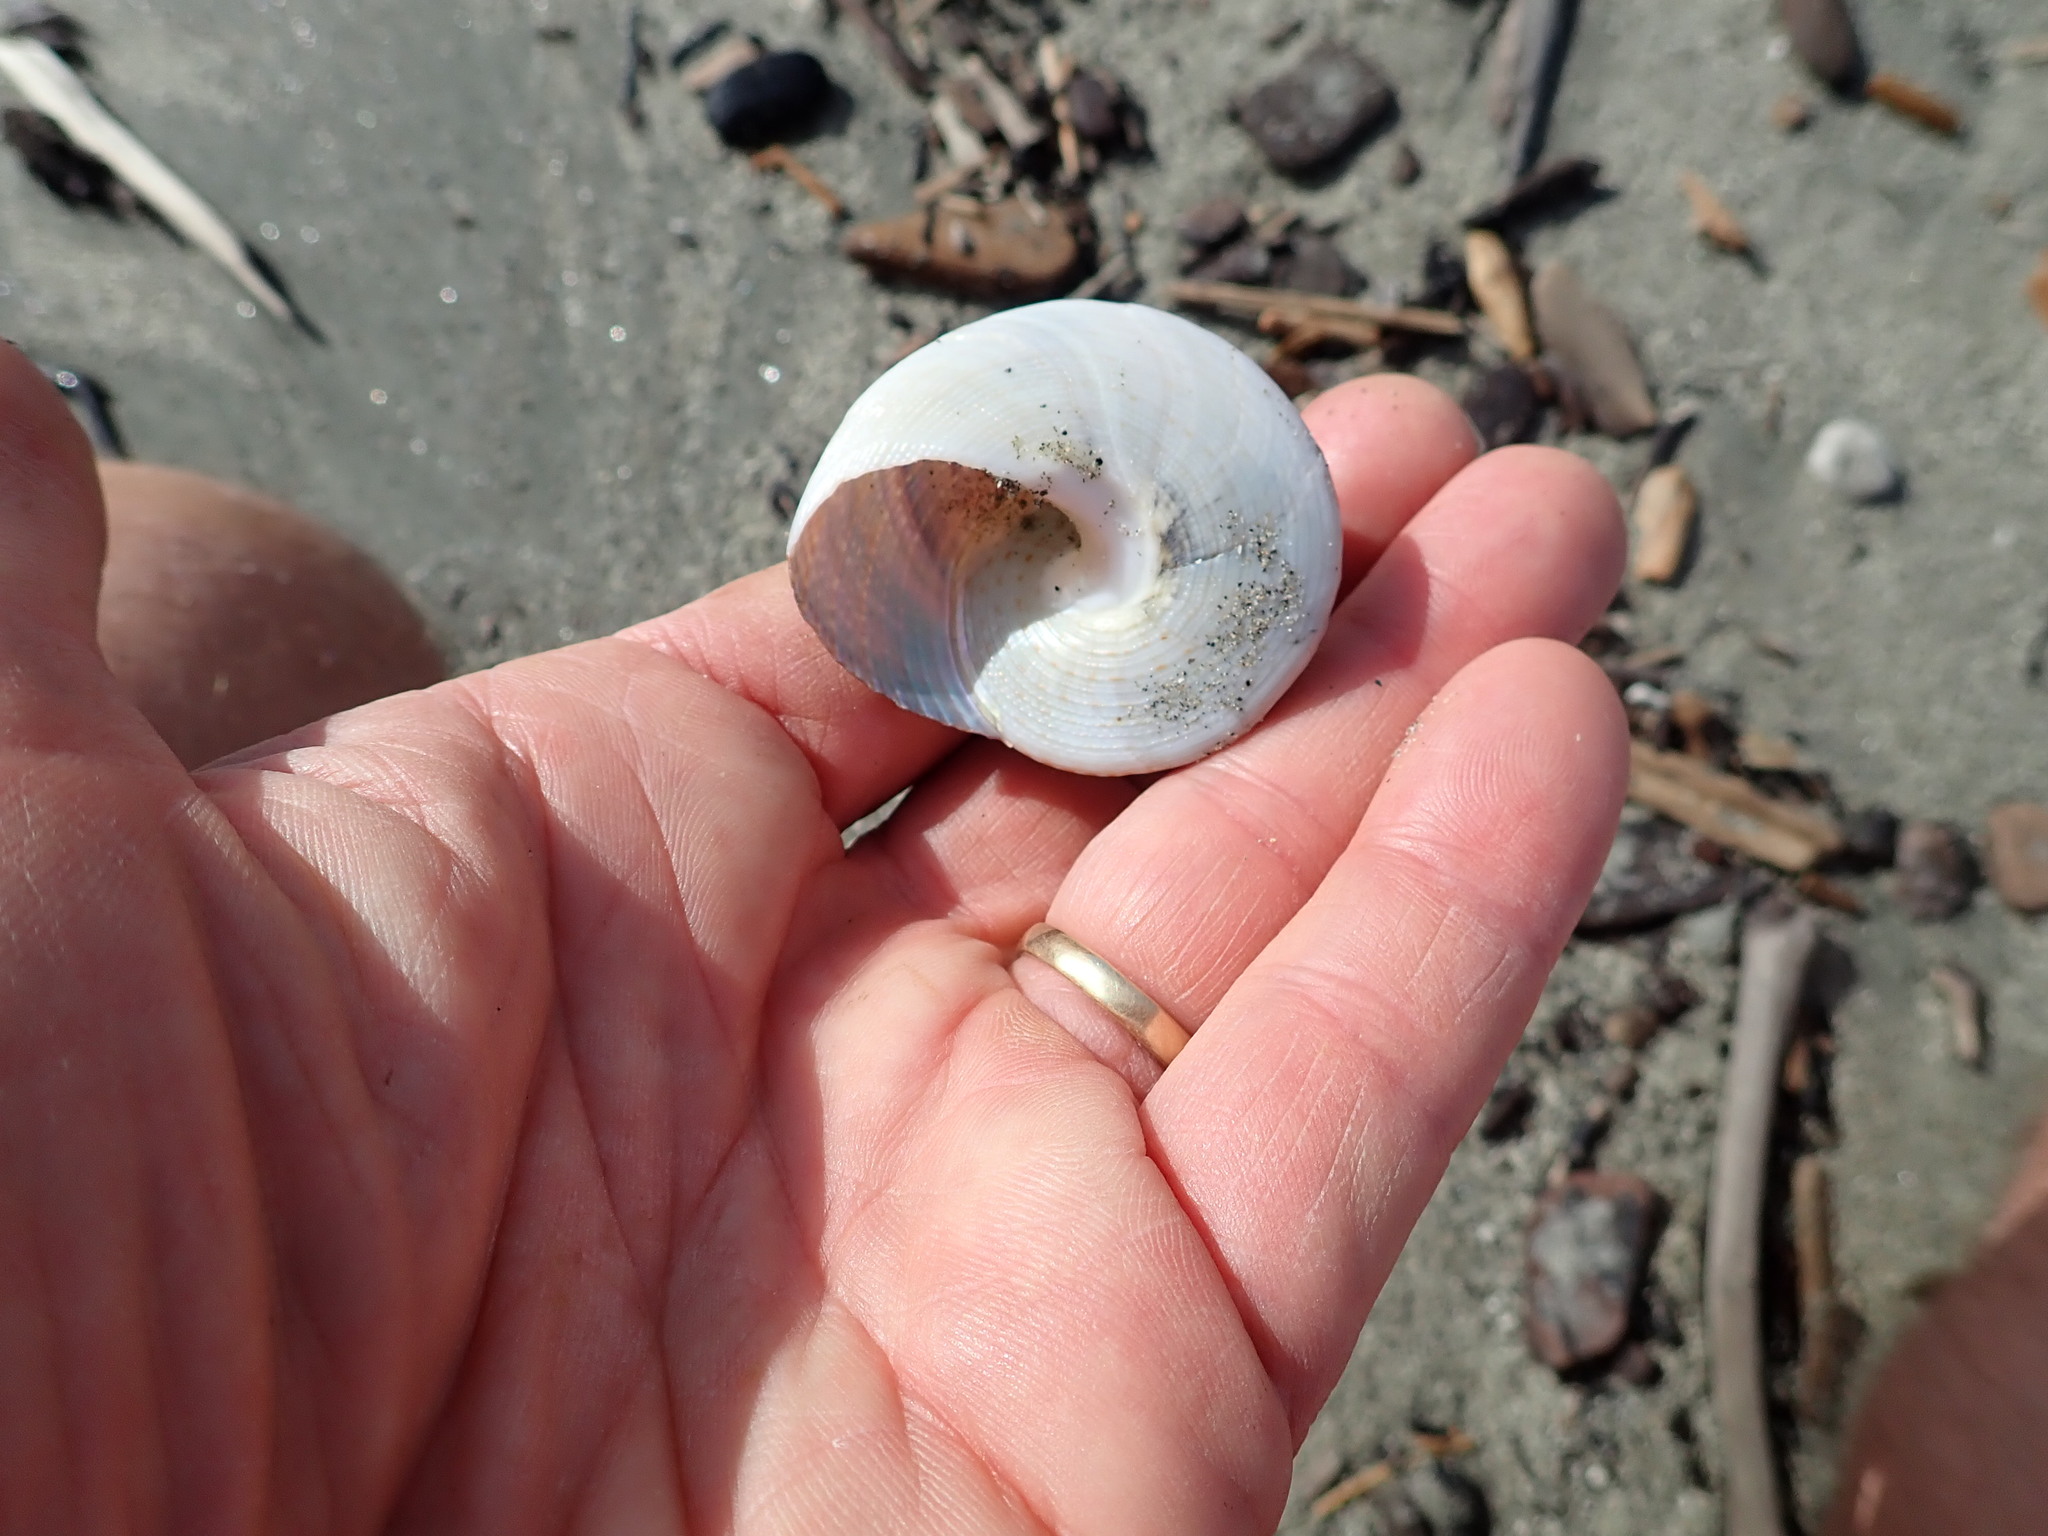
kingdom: Animalia
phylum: Mollusca
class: Gastropoda
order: Trochida
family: Calliostomatidae
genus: Maurea
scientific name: Maurea selecta
